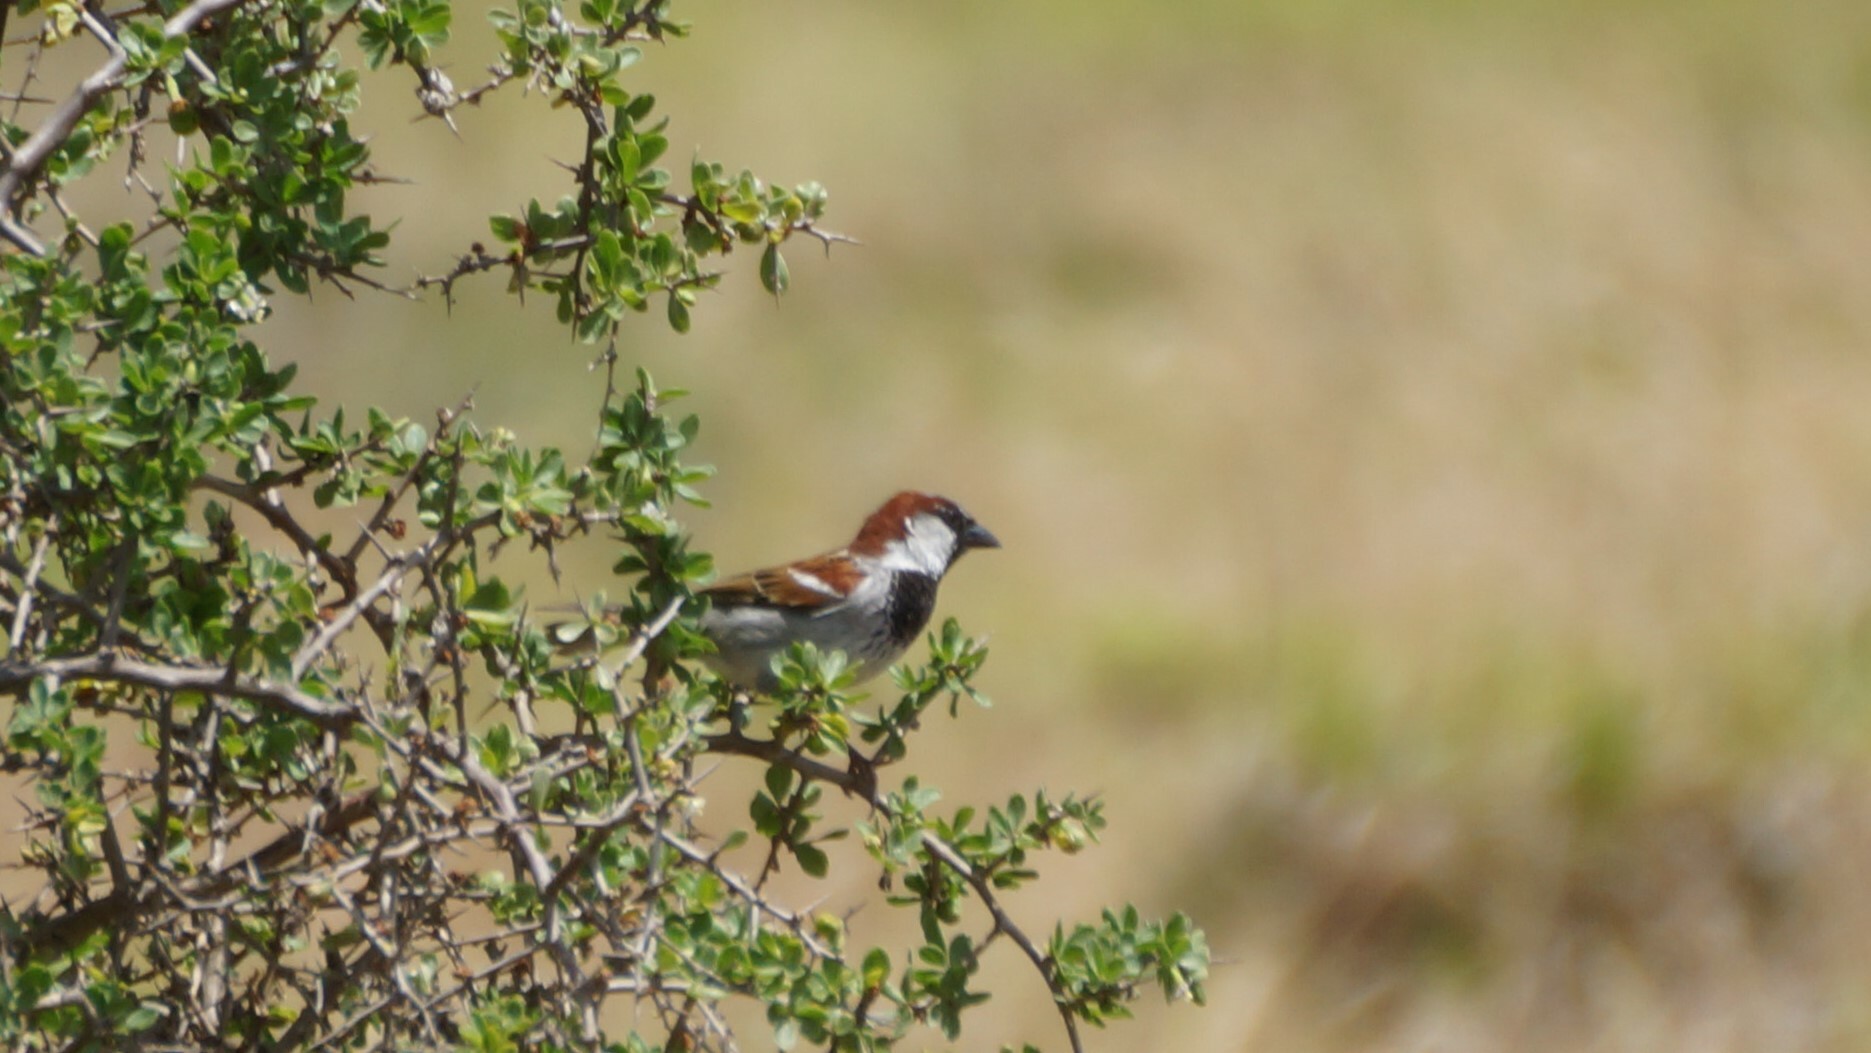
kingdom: Animalia
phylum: Chordata
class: Aves
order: Passeriformes
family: Passeridae
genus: Passer
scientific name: Passer domesticus
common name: House sparrow
